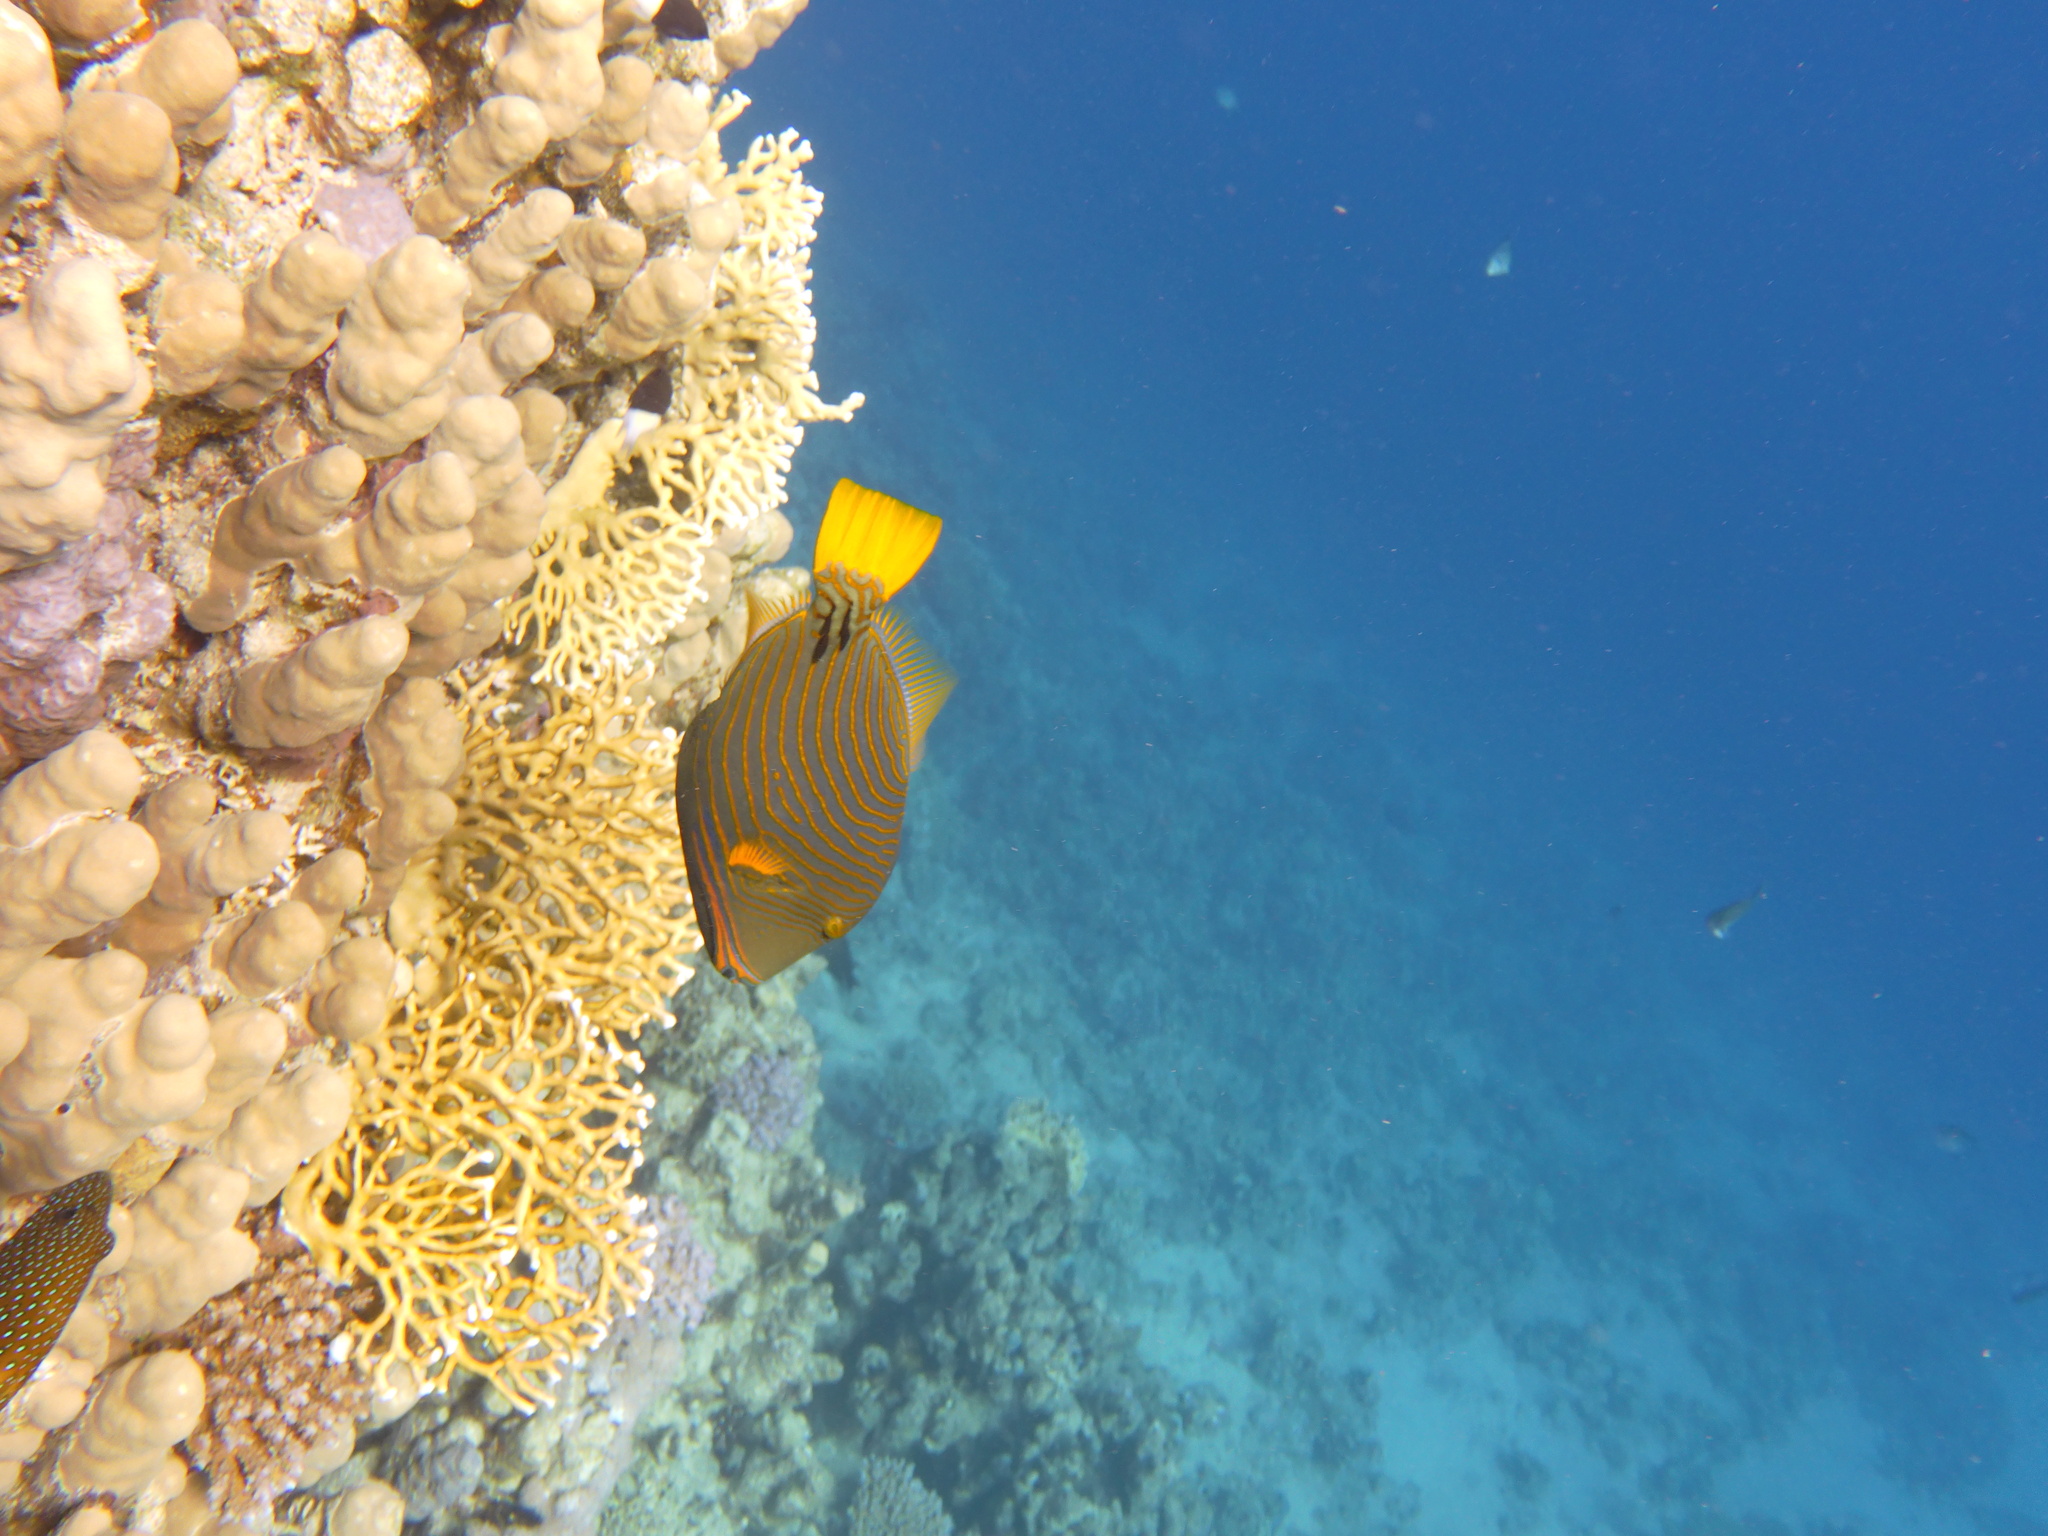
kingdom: Animalia
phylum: Chordata
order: Tetraodontiformes
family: Balistidae
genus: Balistapus
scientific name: Balistapus undulatus
